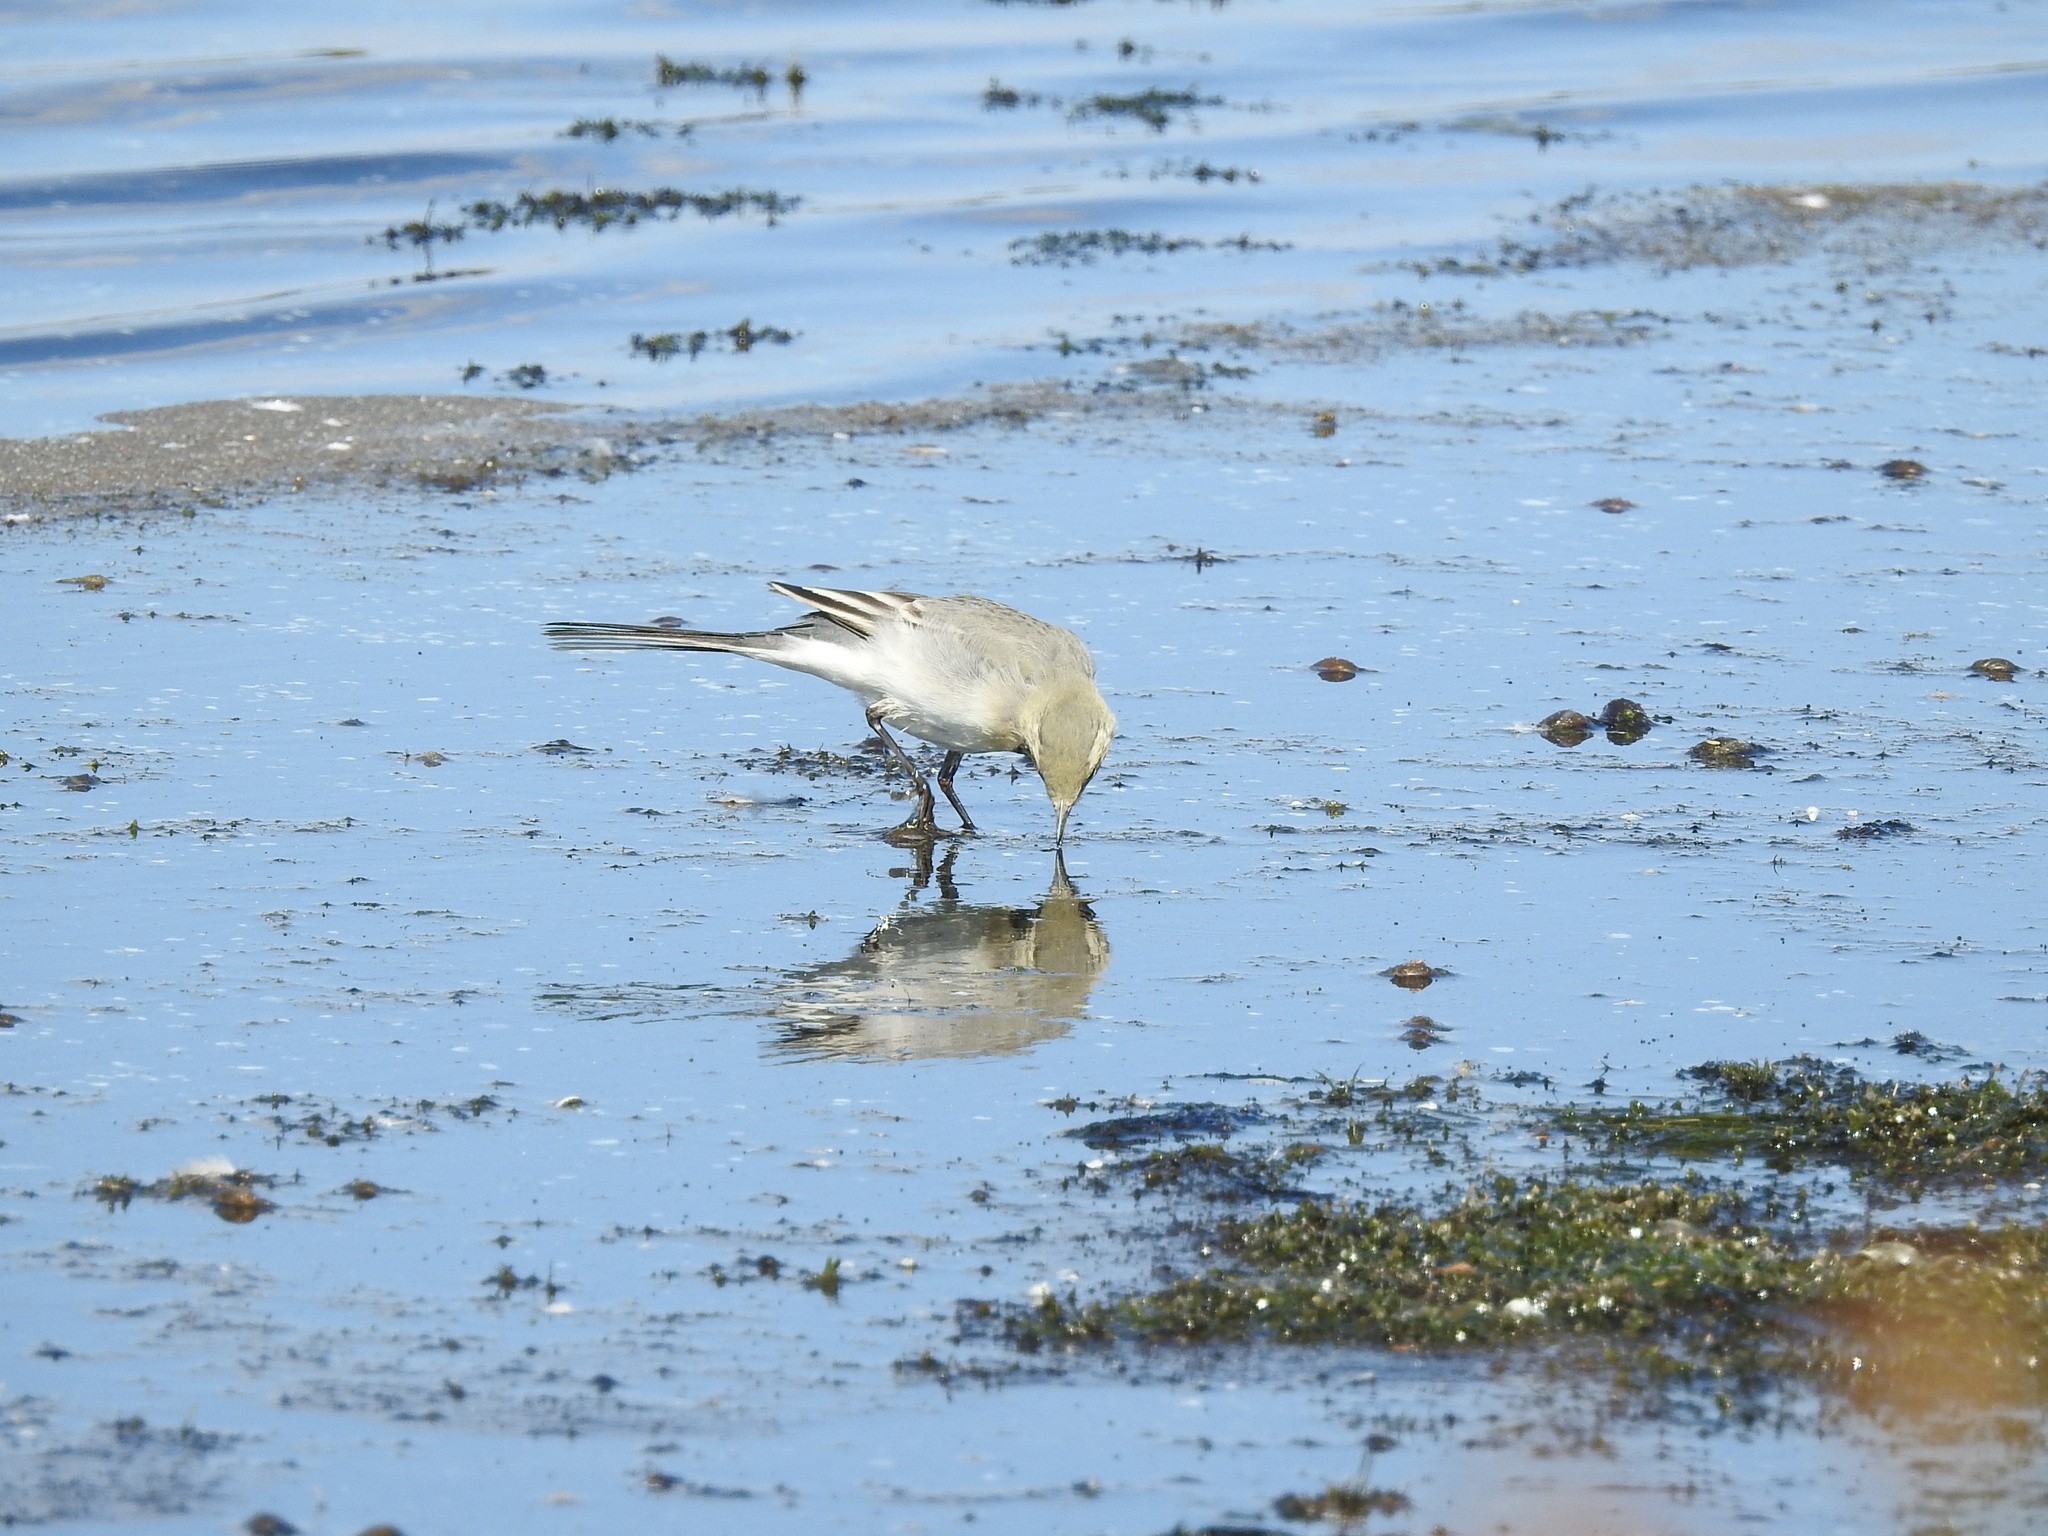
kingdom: Animalia
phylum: Chordata
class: Aves
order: Passeriformes
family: Motacillidae
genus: Motacilla
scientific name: Motacilla alba
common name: White wagtail
